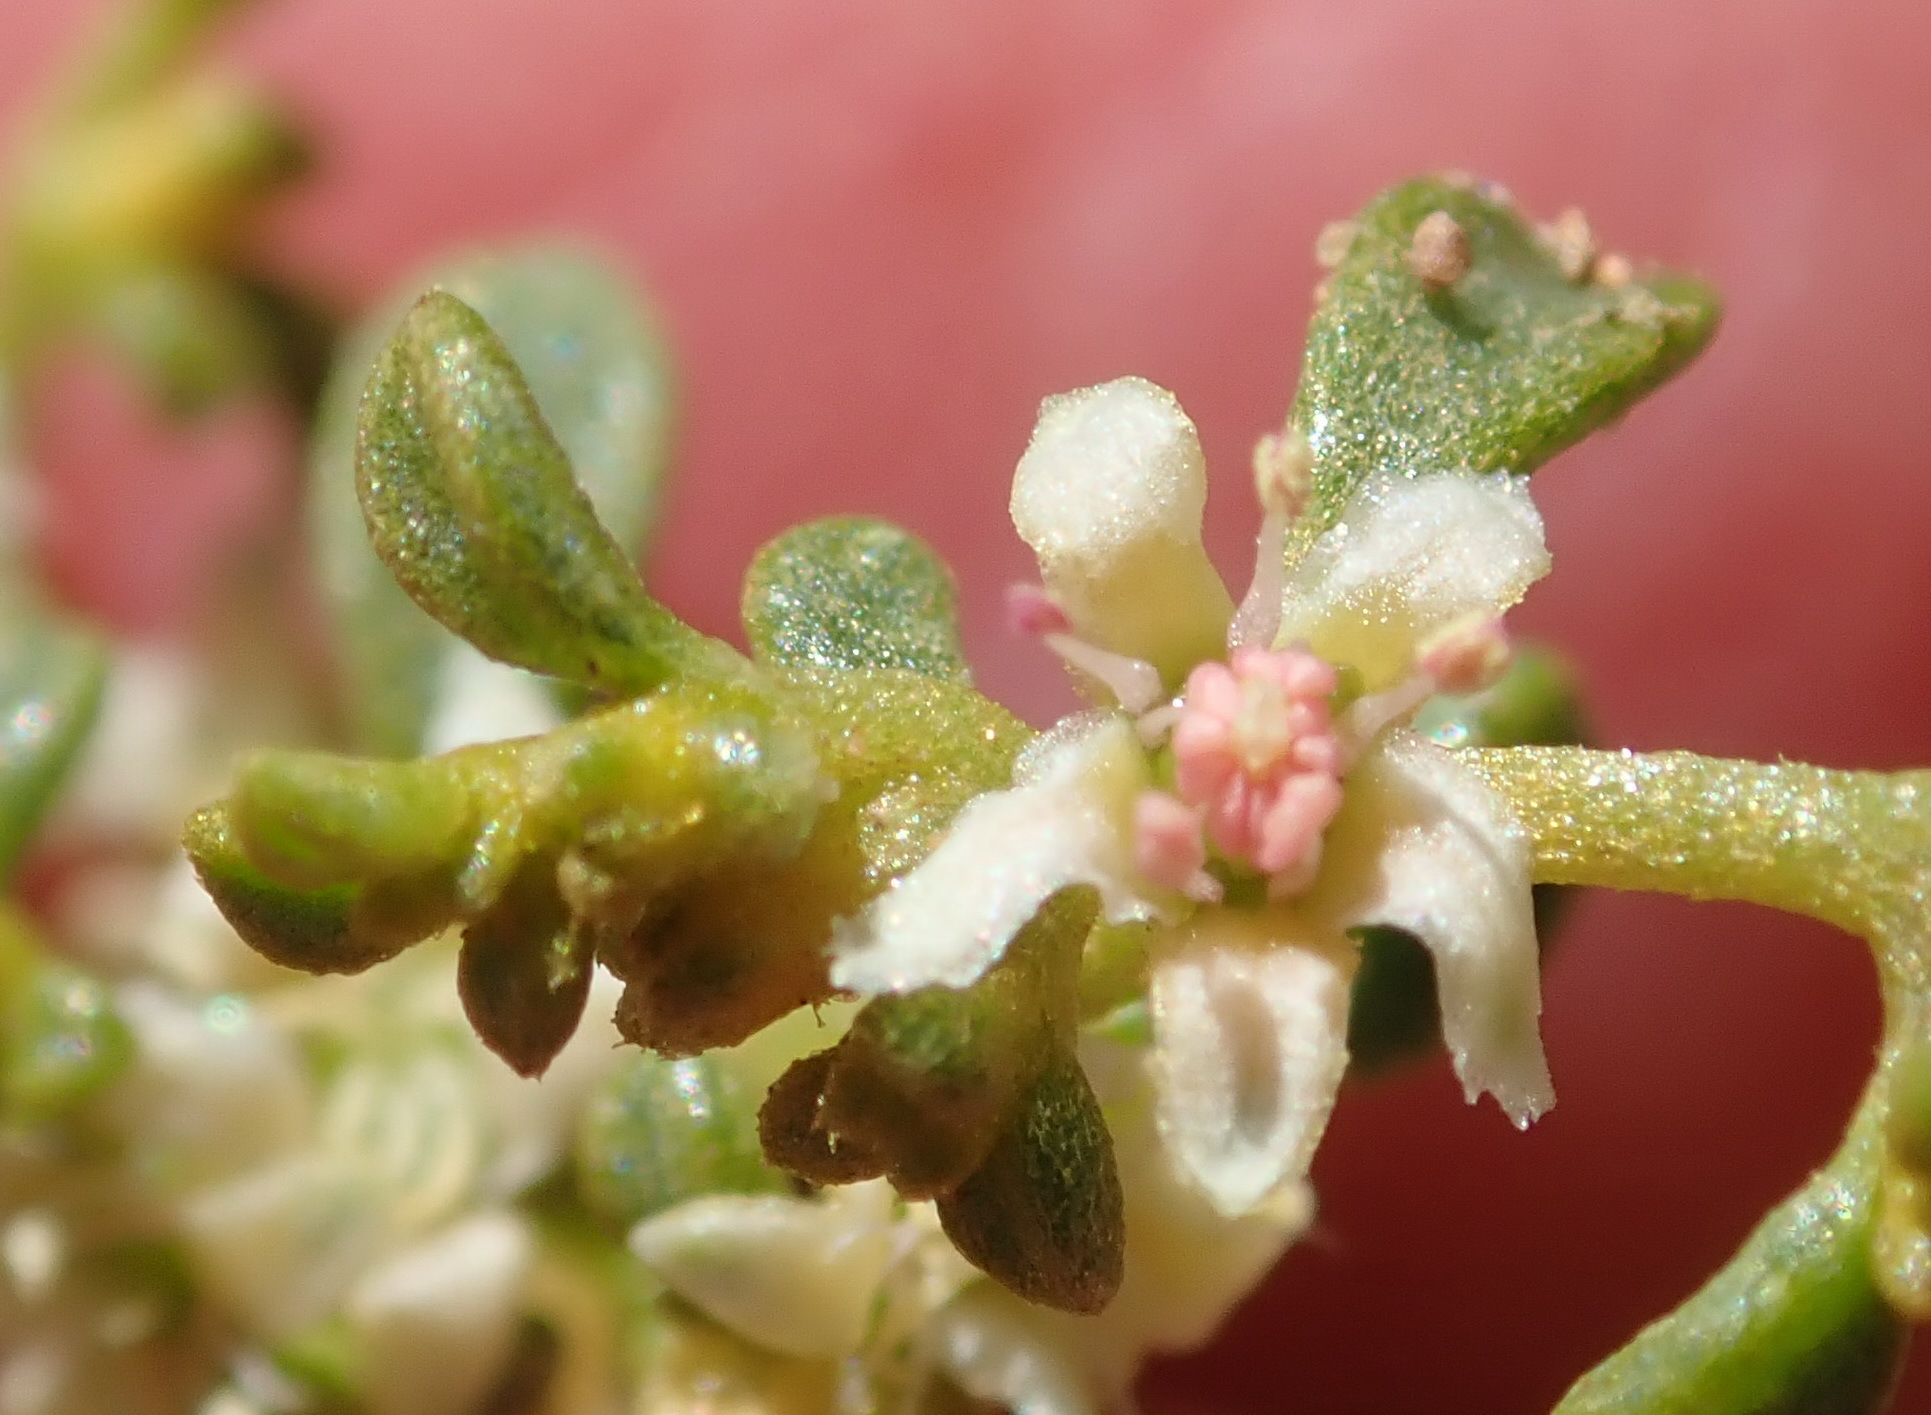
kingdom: Plantae
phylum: Tracheophyta
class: Magnoliopsida
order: Caryophyllales
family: Aizoaceae
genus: Aizoon
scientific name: Aizoon papulosum
